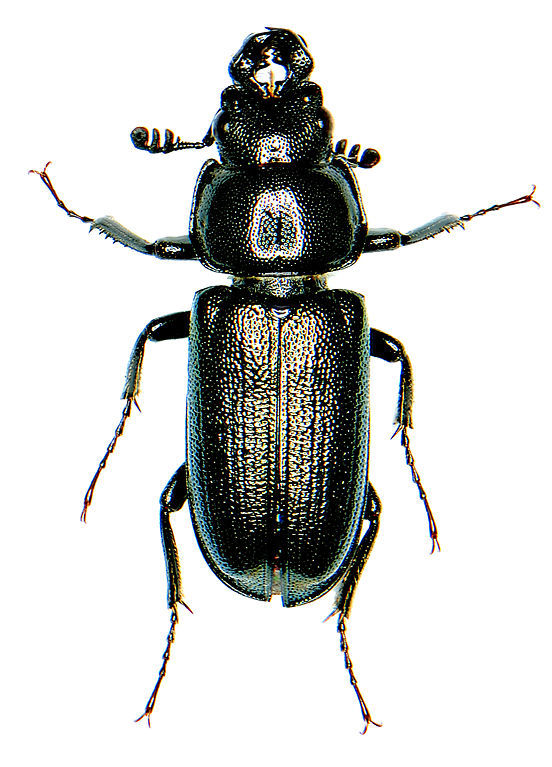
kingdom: Animalia
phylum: Arthropoda
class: Insecta
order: Coleoptera
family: Lucanidae
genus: Platycerus
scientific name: Platycerus quercus
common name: Oak stag beetle
